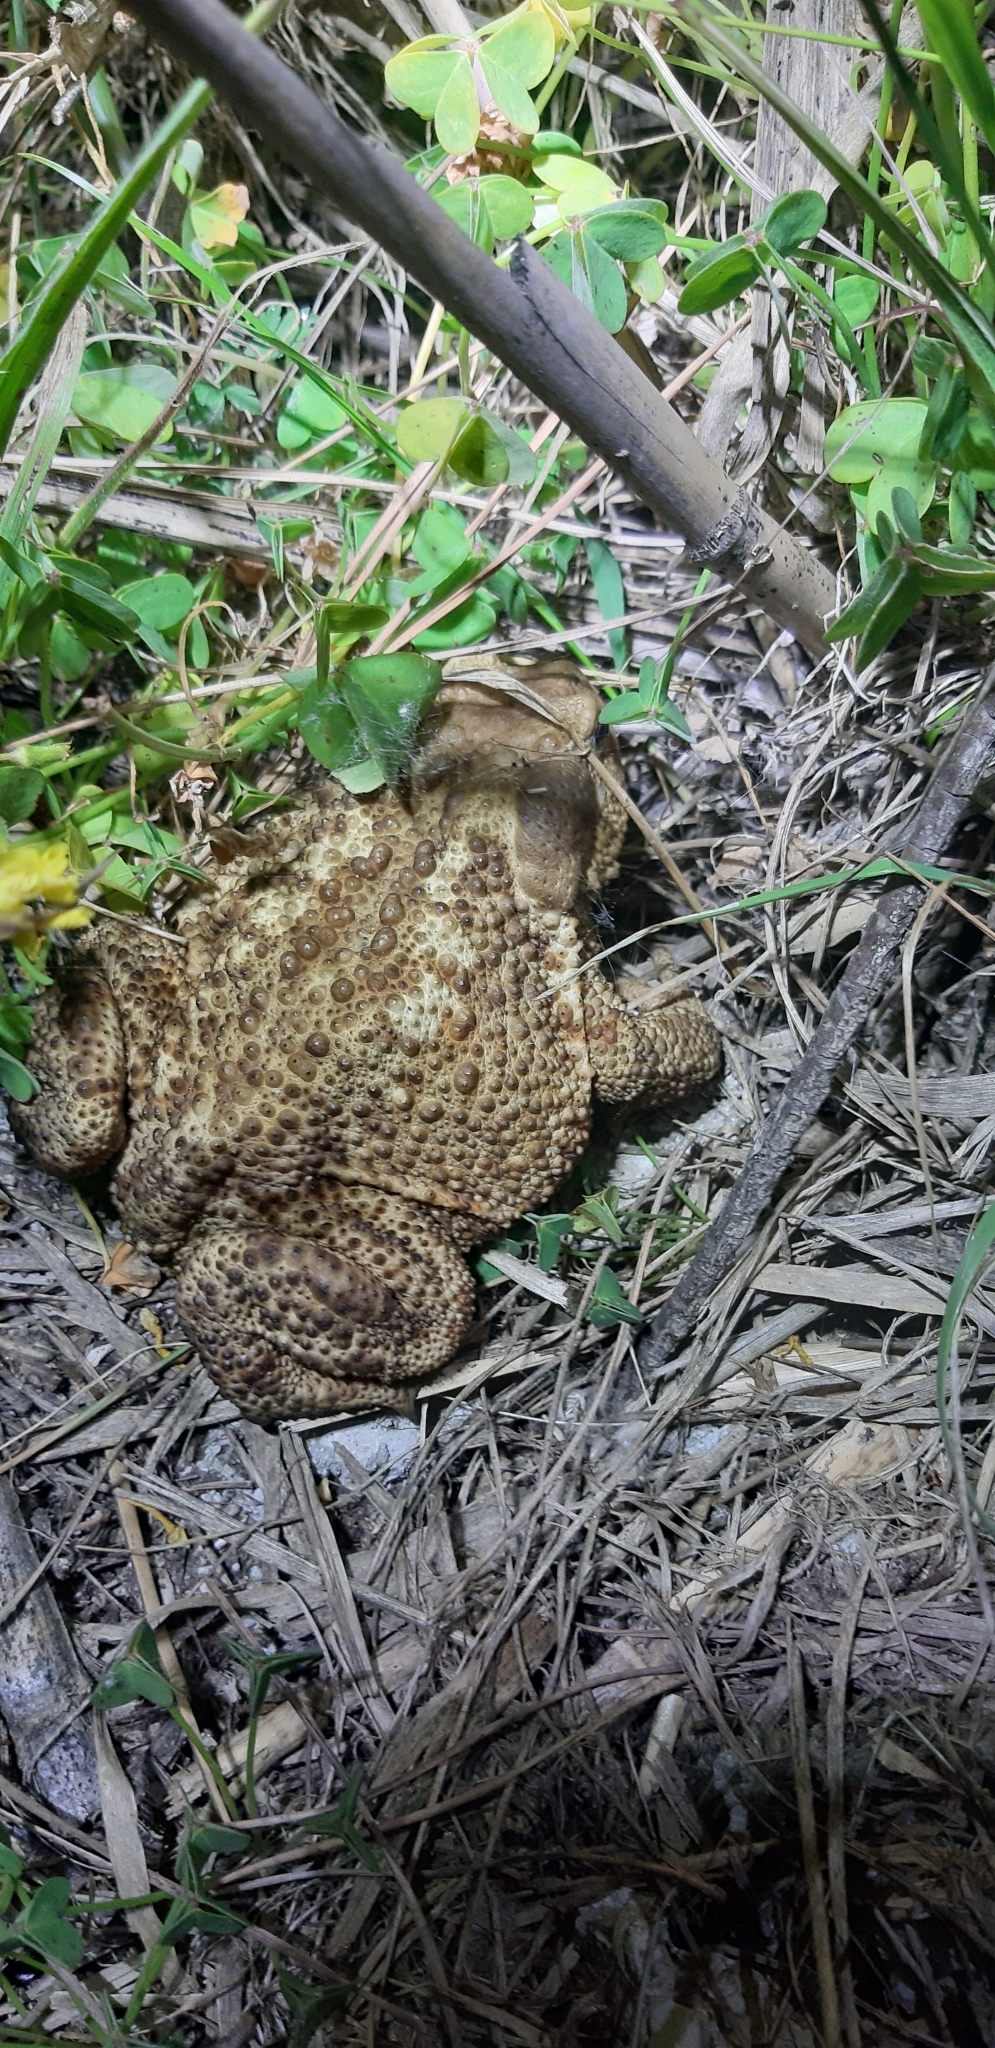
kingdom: Animalia
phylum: Chordata
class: Amphibia
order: Anura
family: Bufonidae
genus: Bufo
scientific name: Bufo bufo
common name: Common toad
